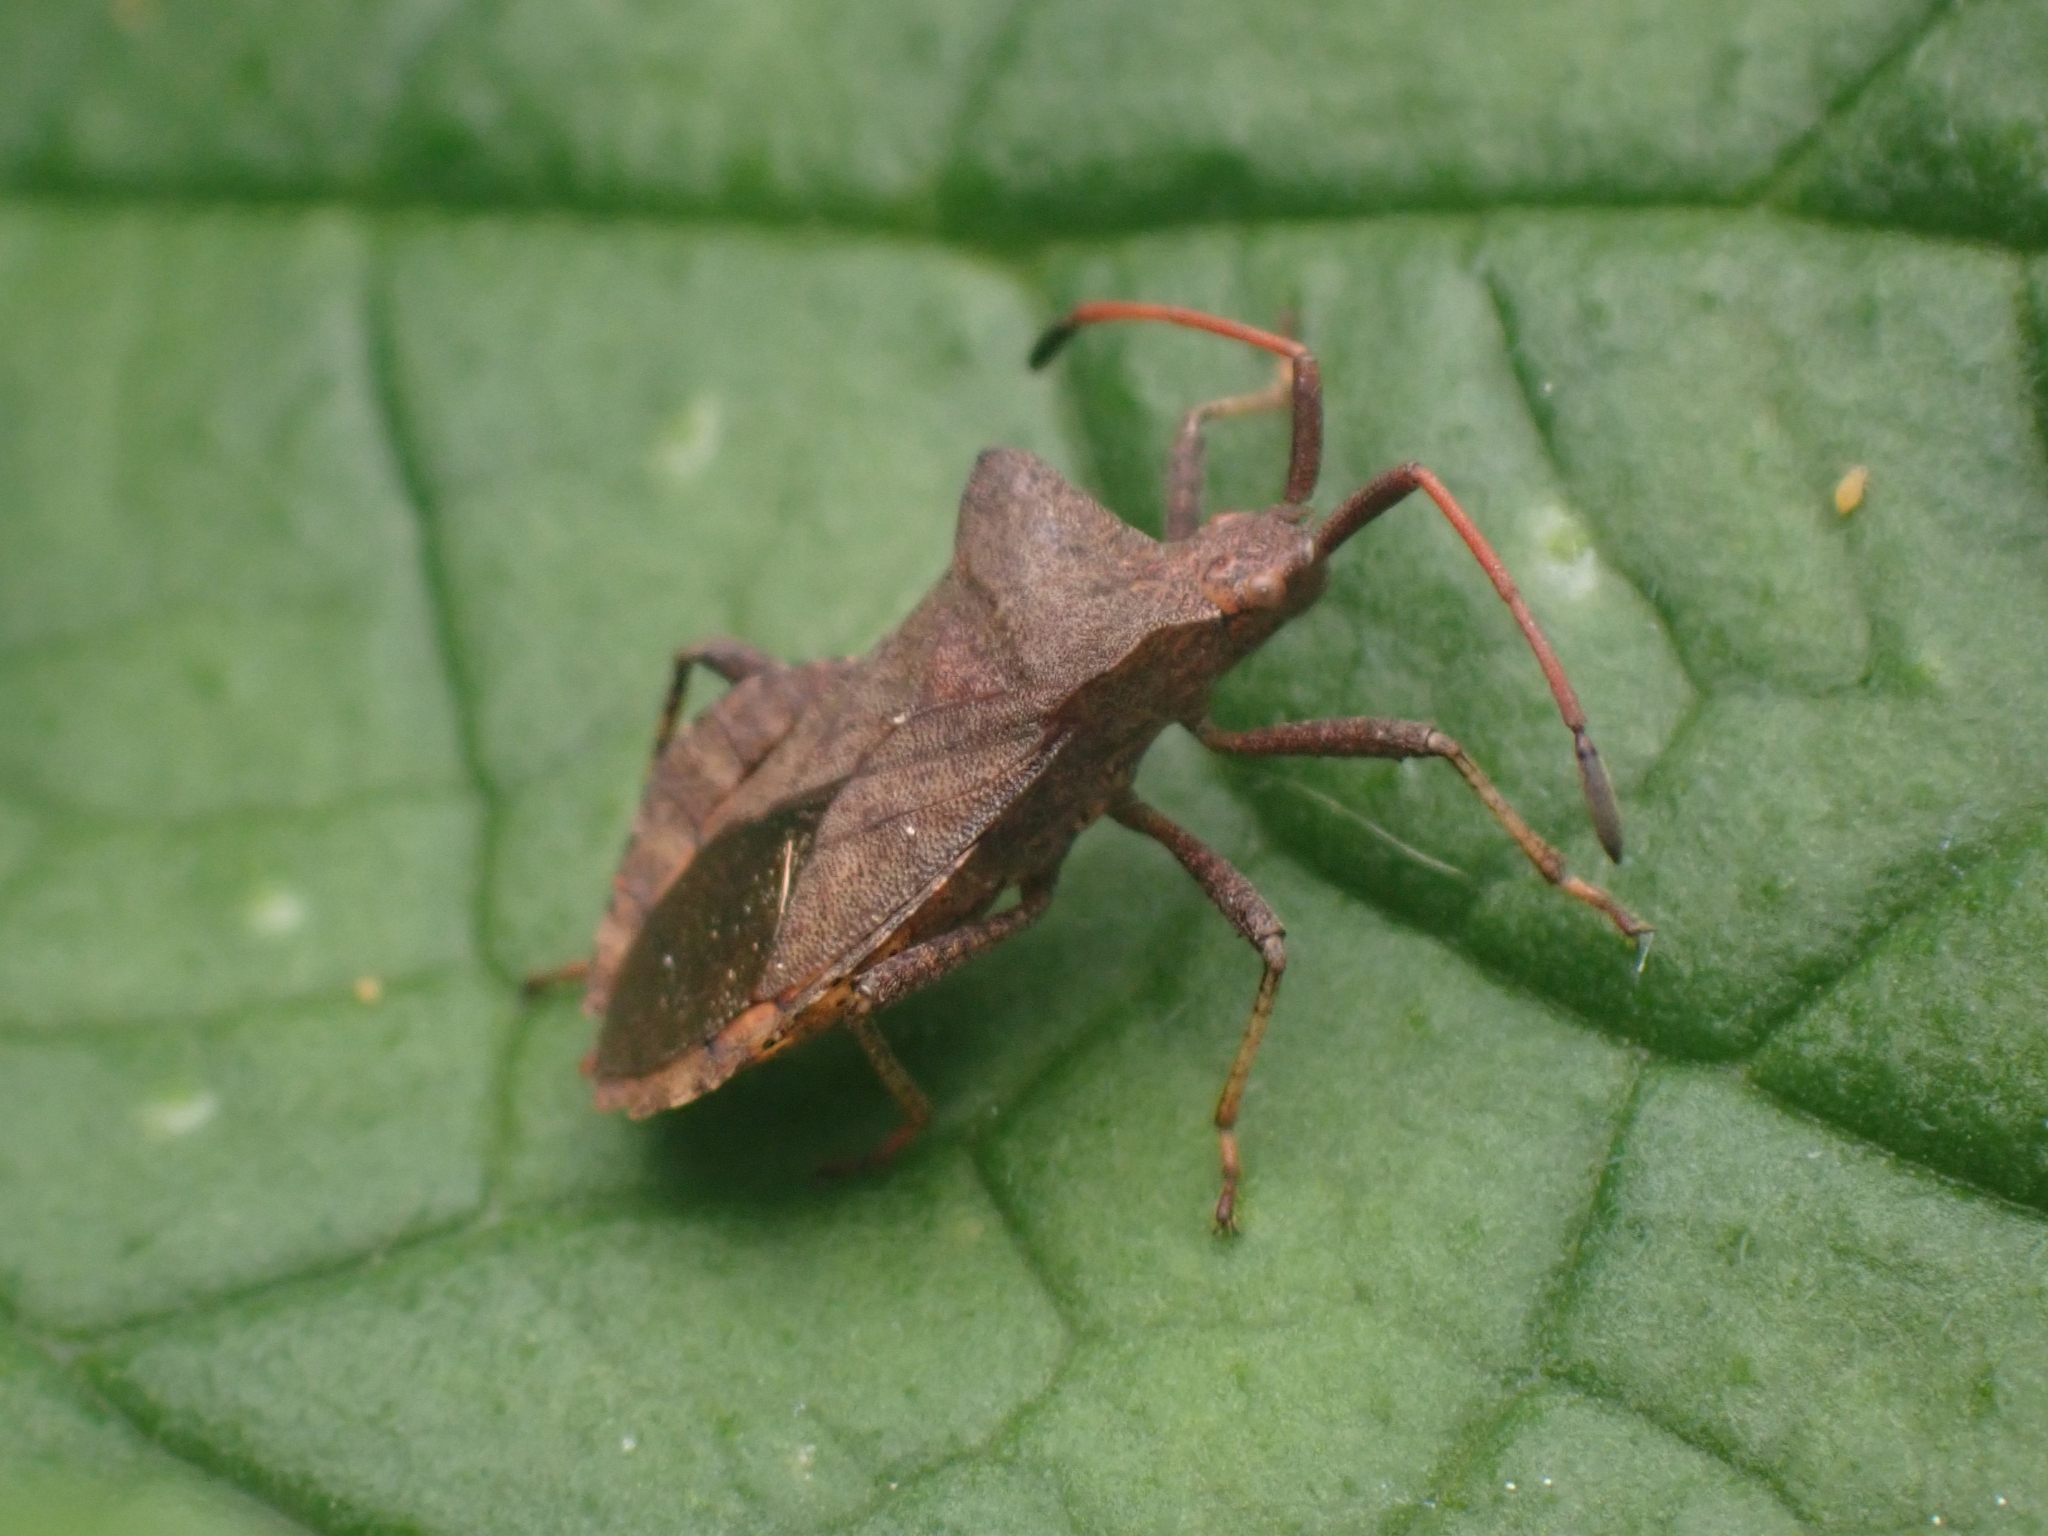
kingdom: Animalia
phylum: Arthropoda
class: Insecta
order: Hemiptera
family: Coreidae
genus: Coreus
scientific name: Coreus marginatus
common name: Dock bug
